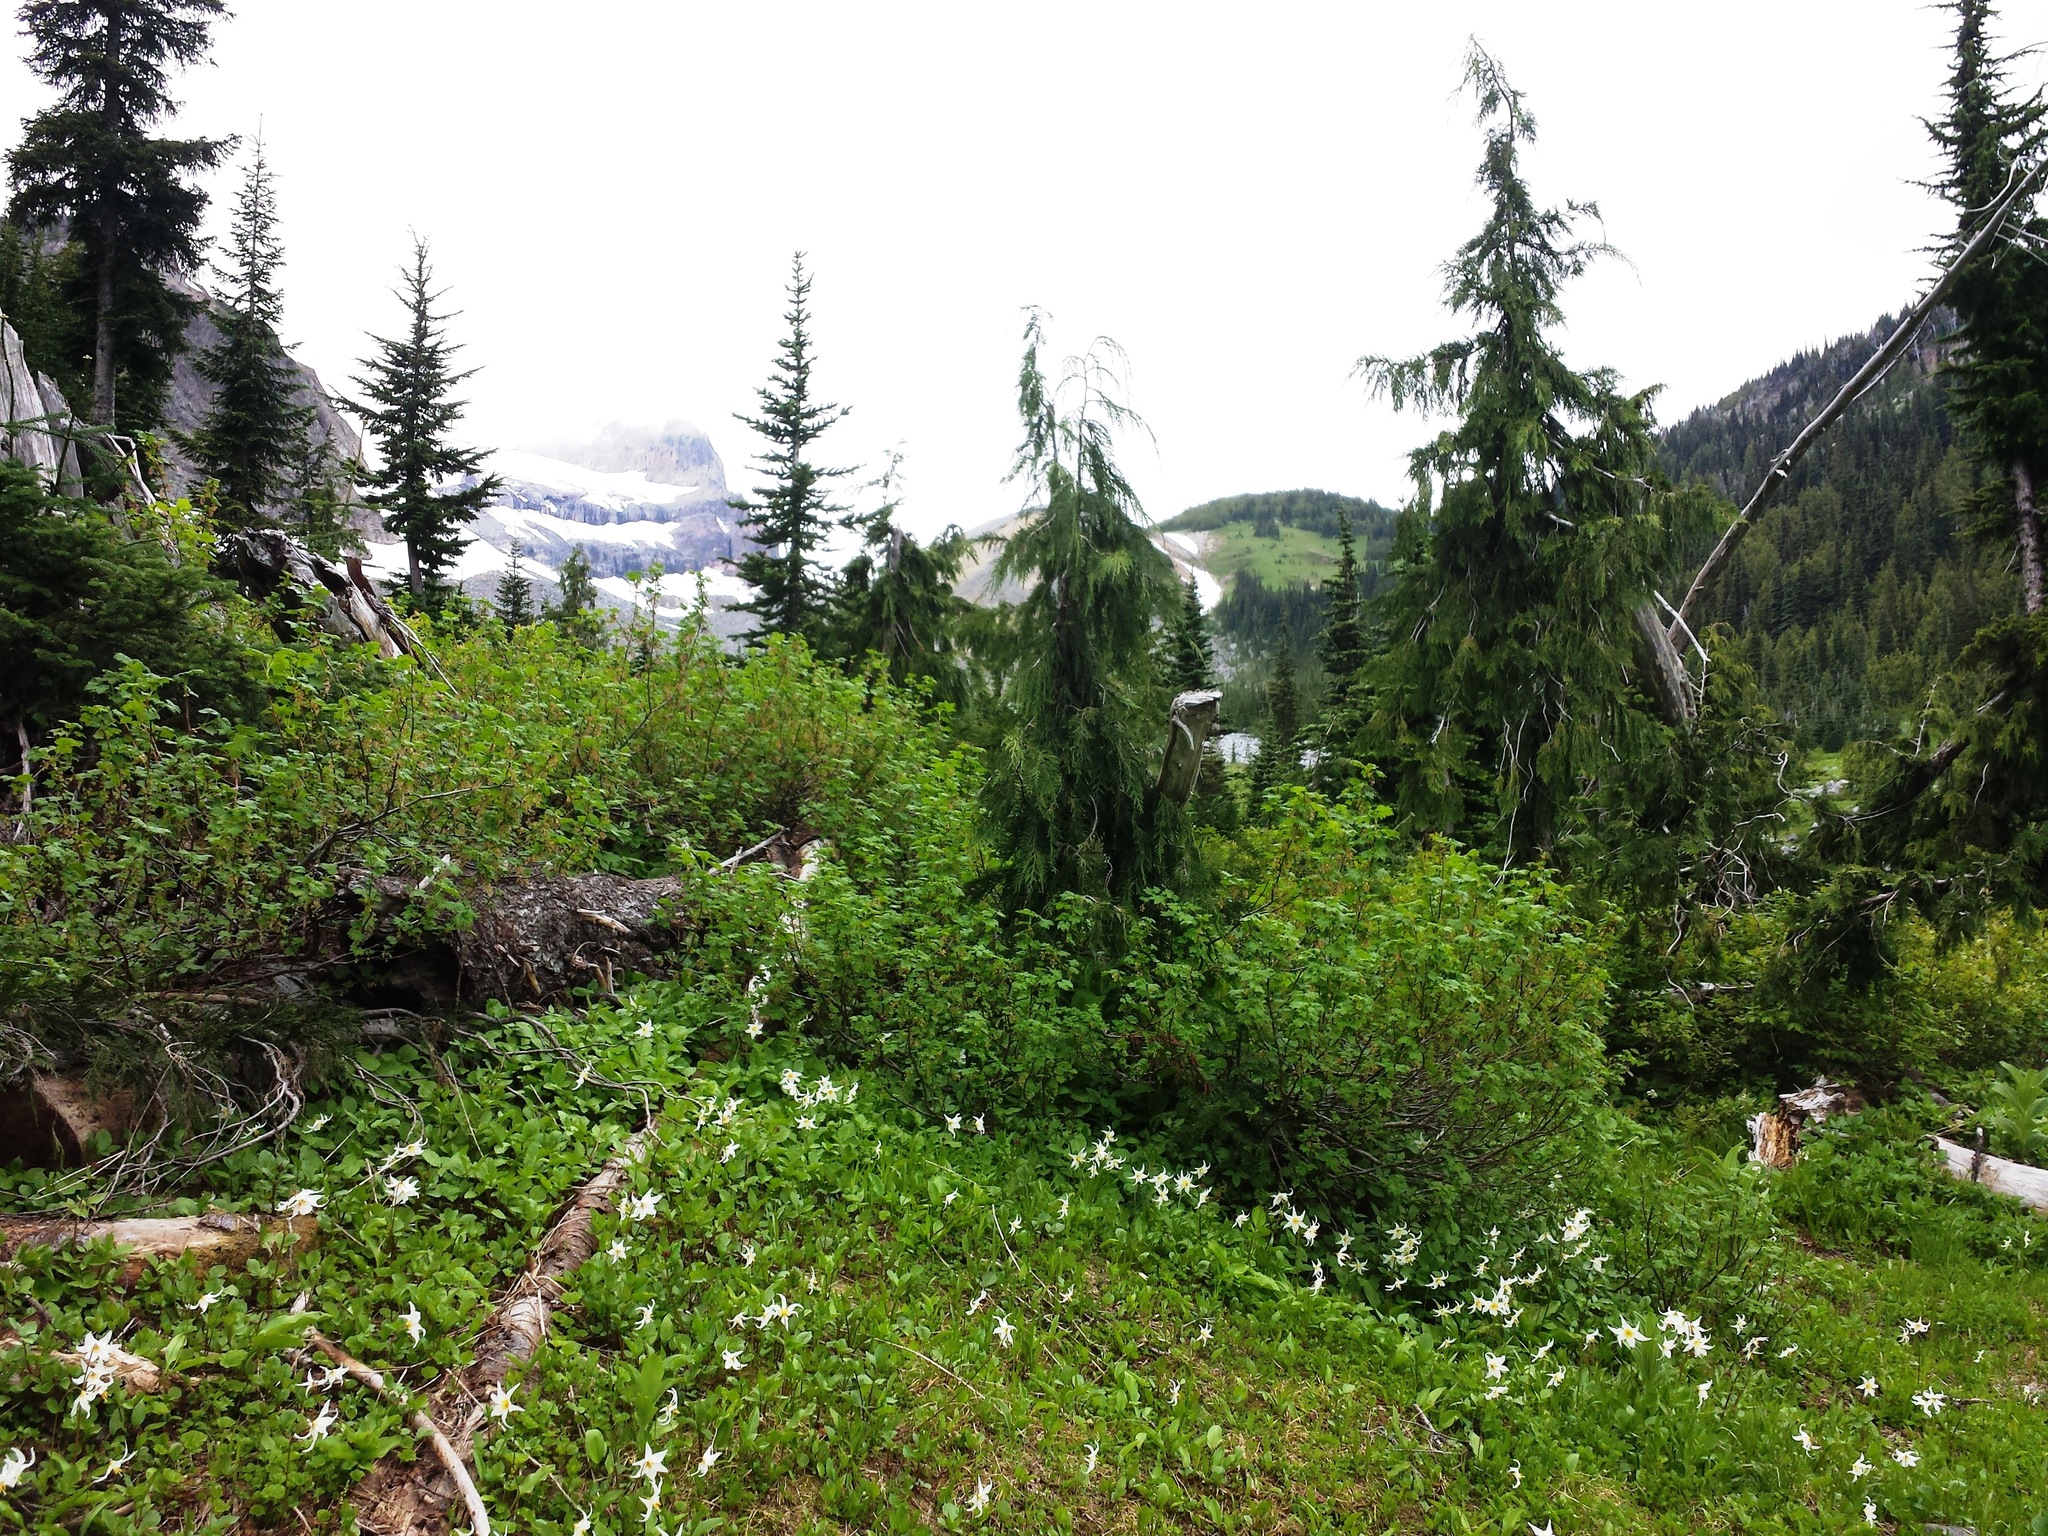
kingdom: Plantae
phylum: Tracheophyta
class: Liliopsida
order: Liliales
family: Liliaceae
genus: Erythronium
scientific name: Erythronium montanum
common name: Avalanche lily
